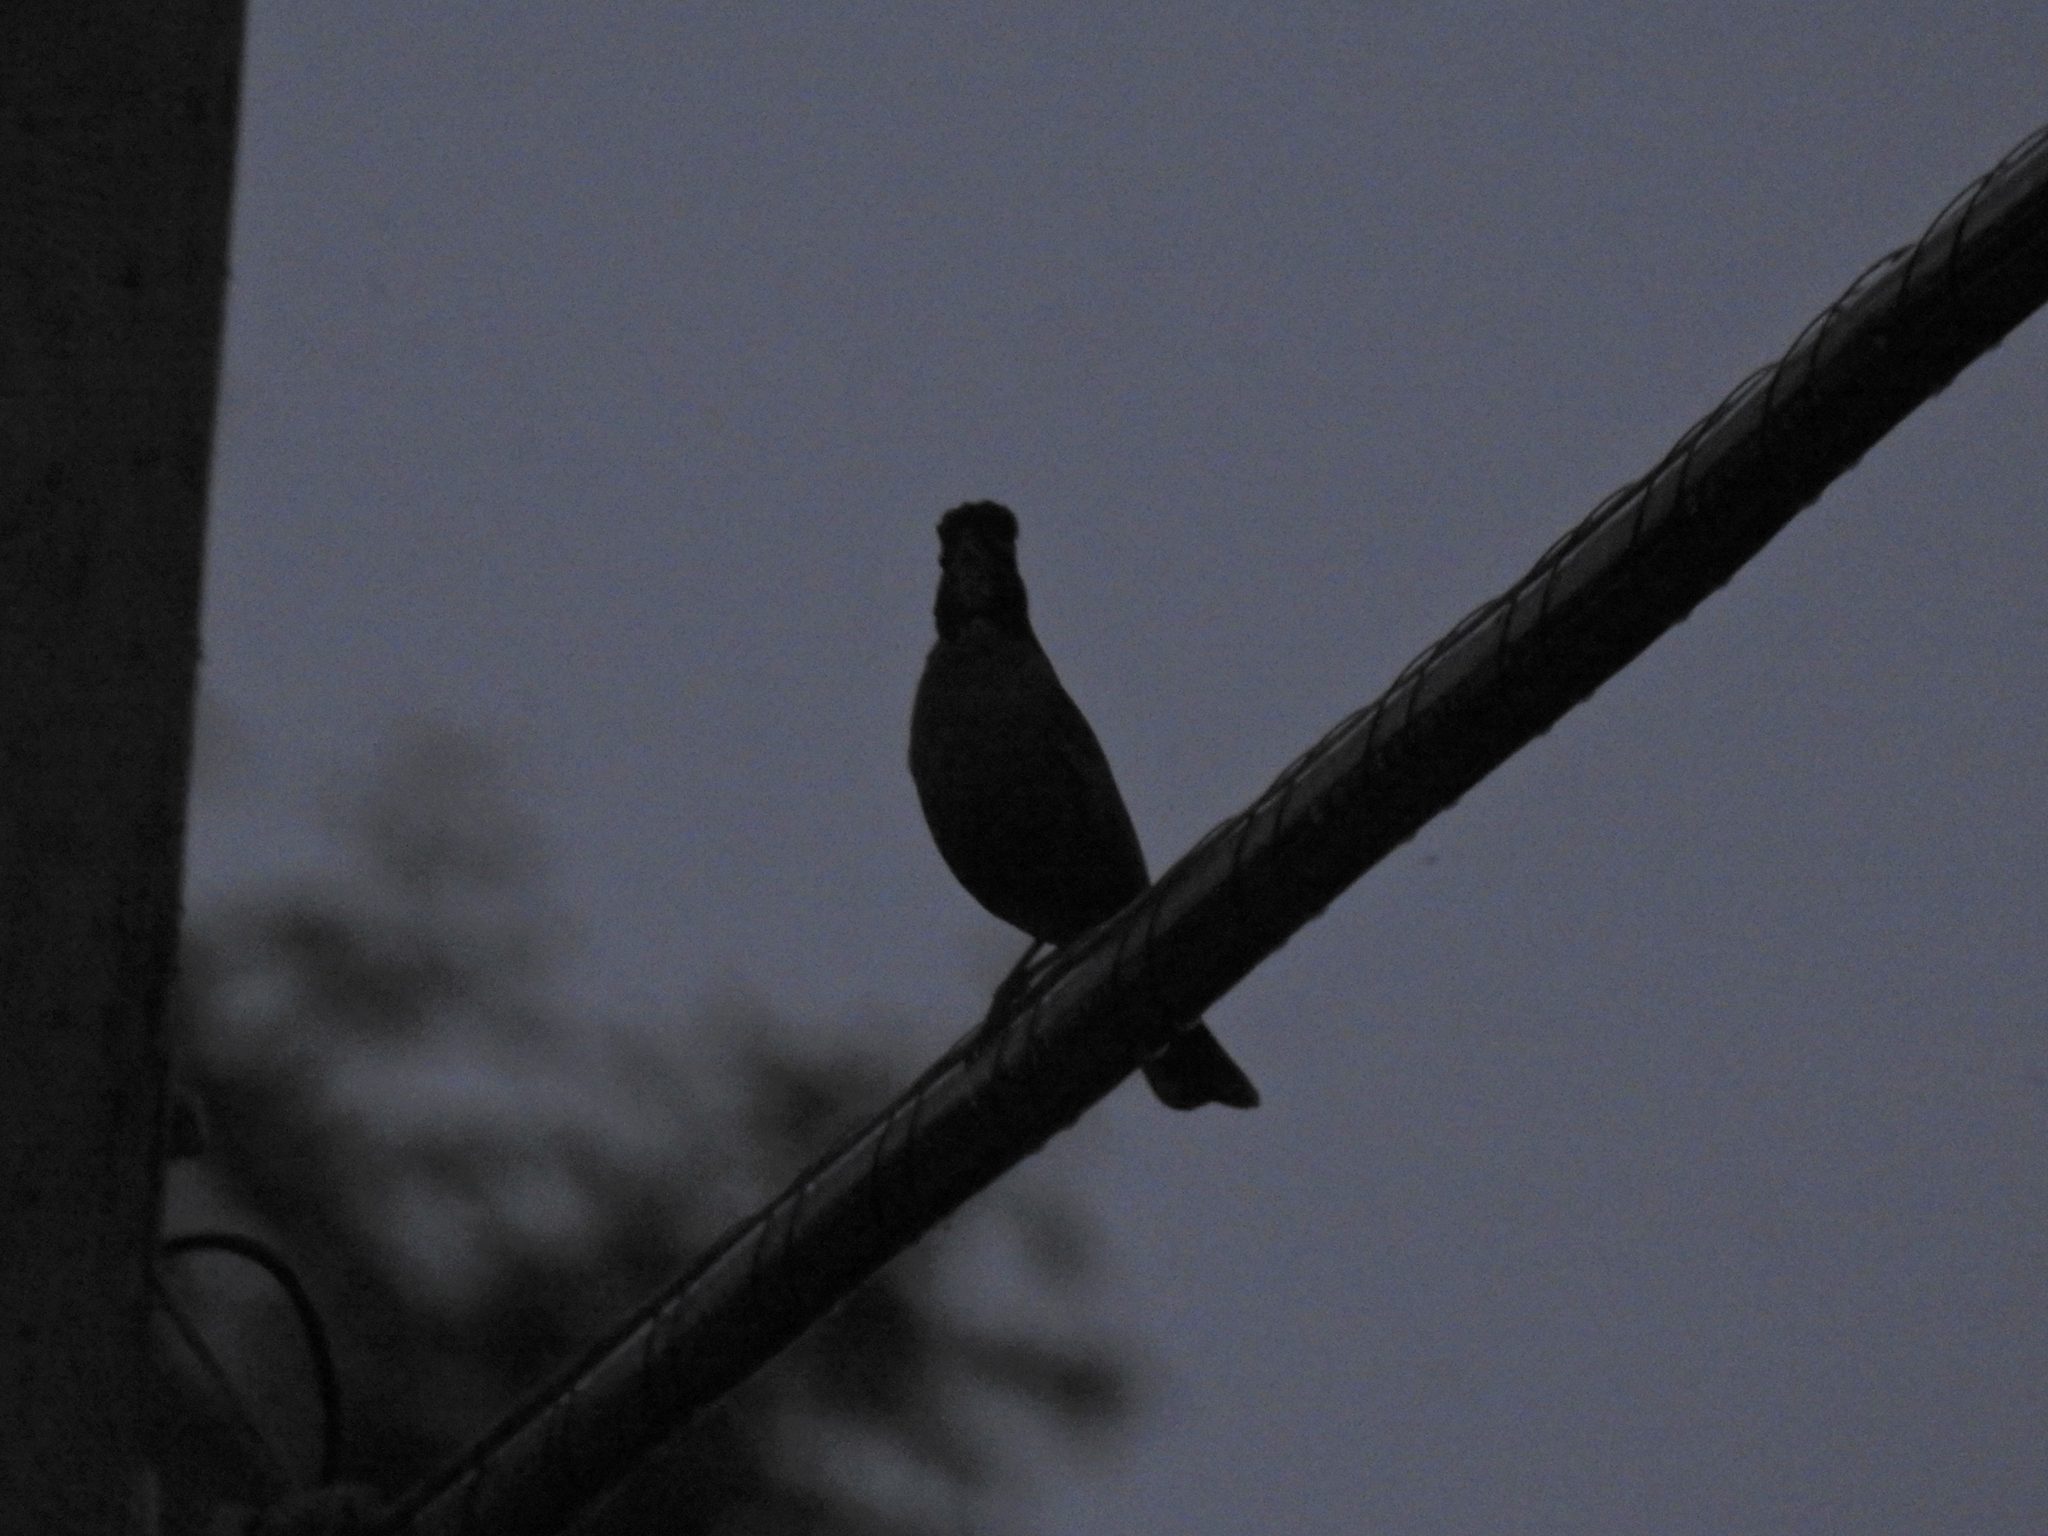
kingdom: Animalia
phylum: Chordata
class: Aves
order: Passeriformes
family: Turdidae
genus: Turdus
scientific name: Turdus migratorius
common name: American robin
